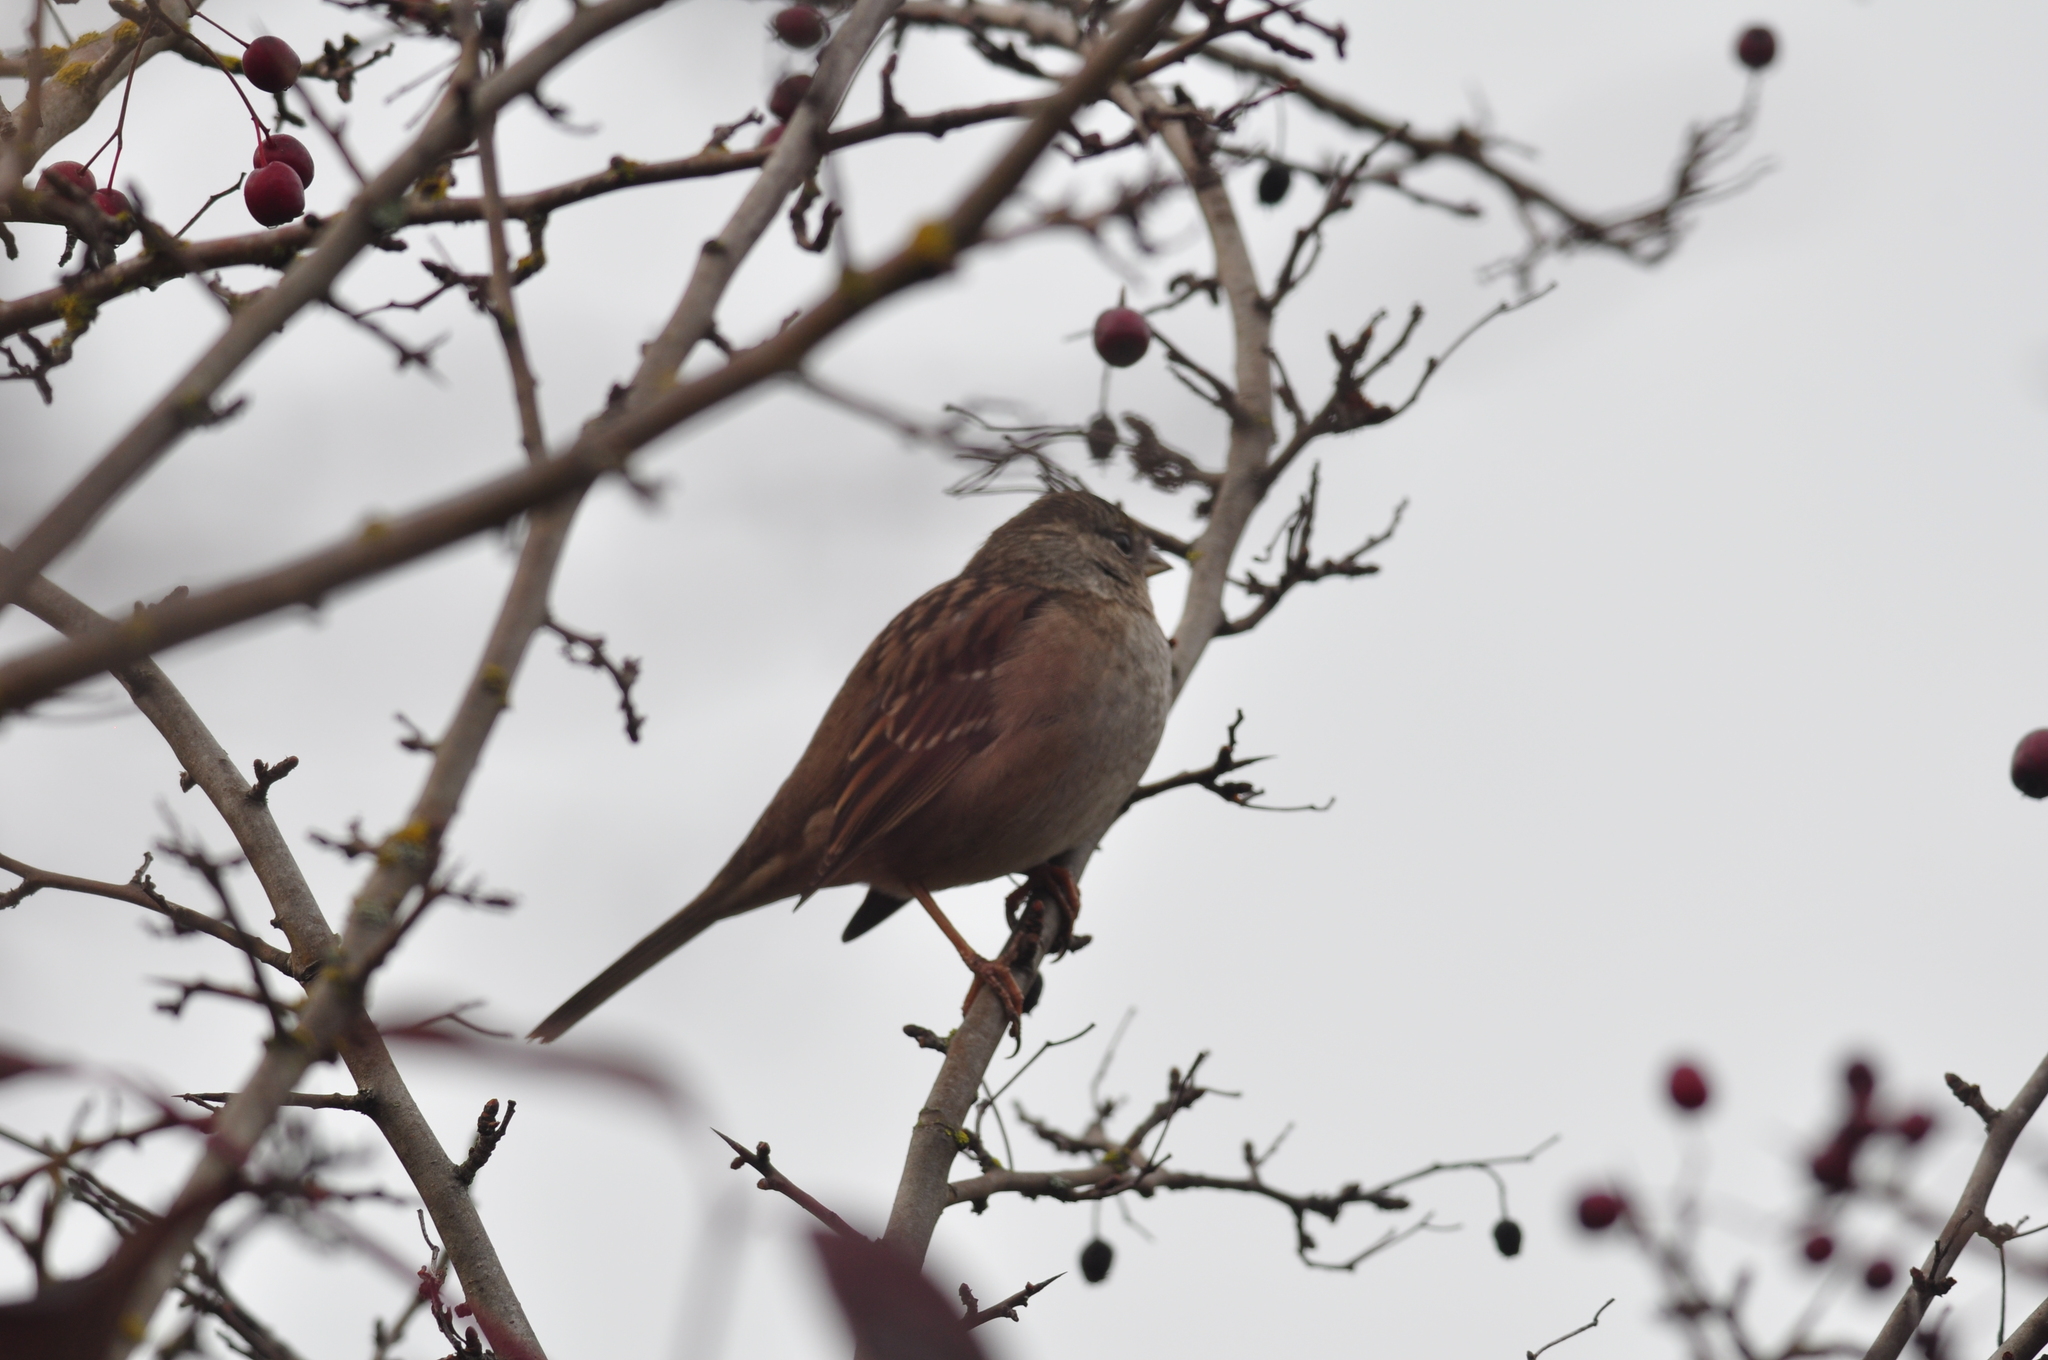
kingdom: Animalia
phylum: Chordata
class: Aves
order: Passeriformes
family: Passerellidae
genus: Zonotrichia
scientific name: Zonotrichia atricapilla
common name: Golden-crowned sparrow
